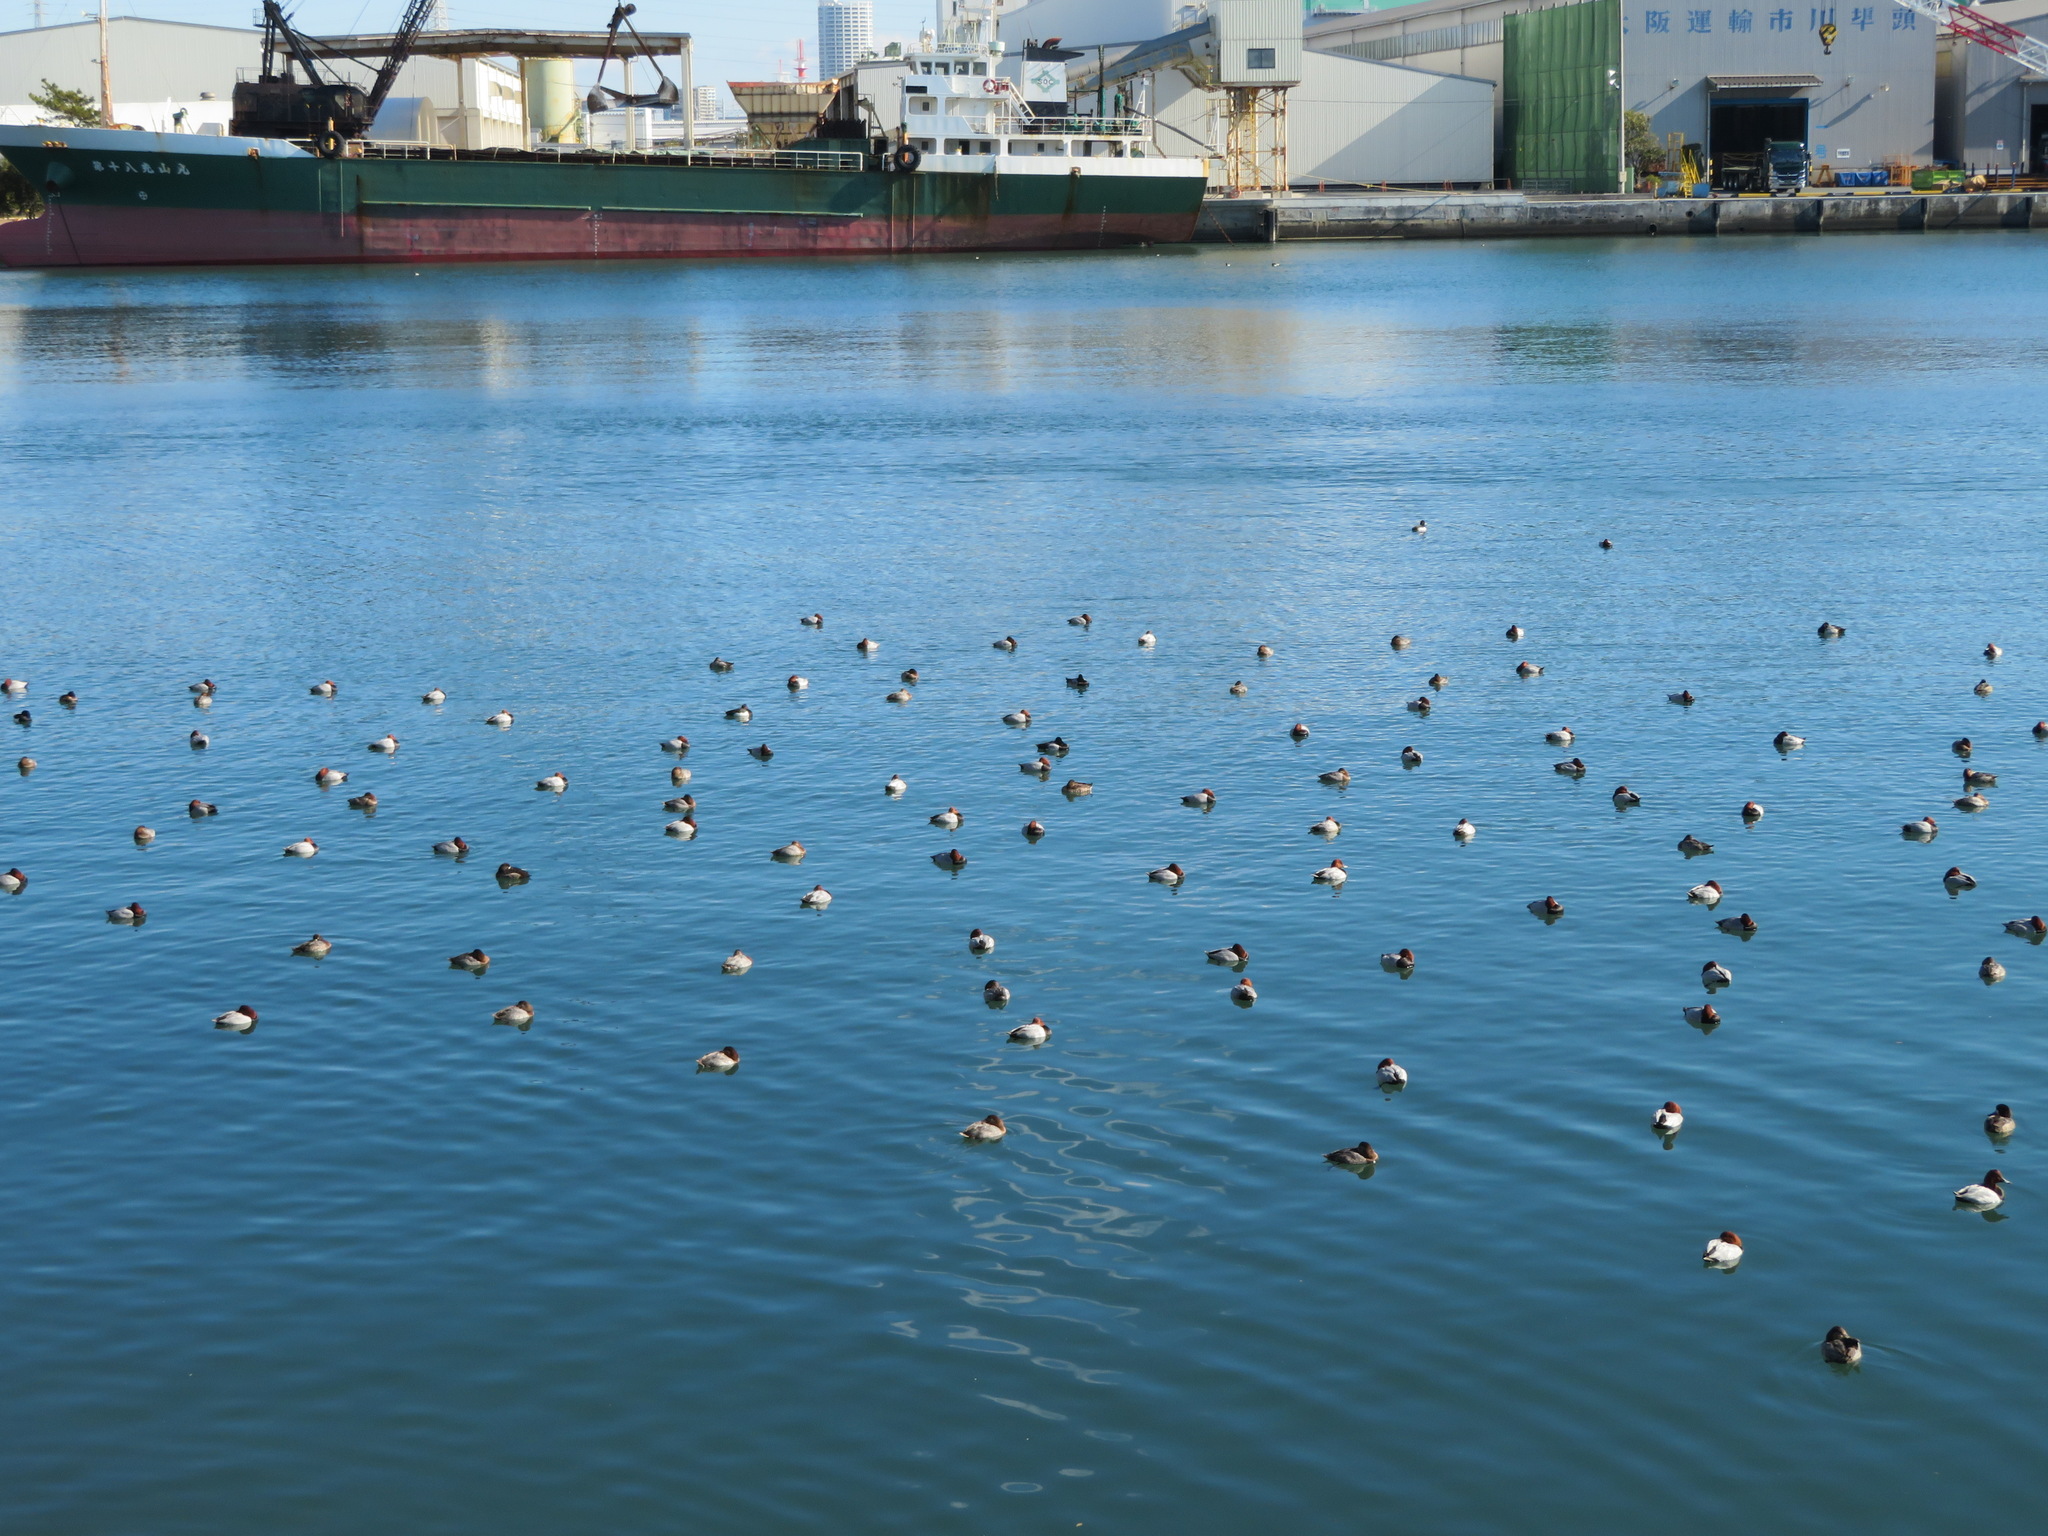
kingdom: Animalia
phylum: Chordata
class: Aves
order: Anseriformes
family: Anatidae
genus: Aythya
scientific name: Aythya ferina
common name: Common pochard
